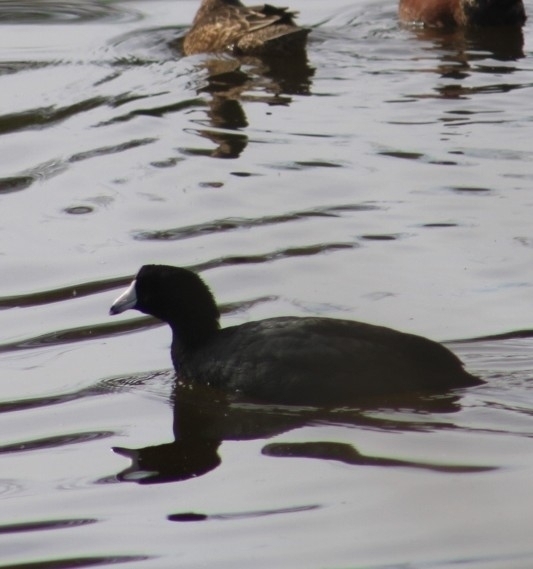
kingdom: Animalia
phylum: Chordata
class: Aves
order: Gruiformes
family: Rallidae
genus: Fulica
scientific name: Fulica americana
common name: American coot
